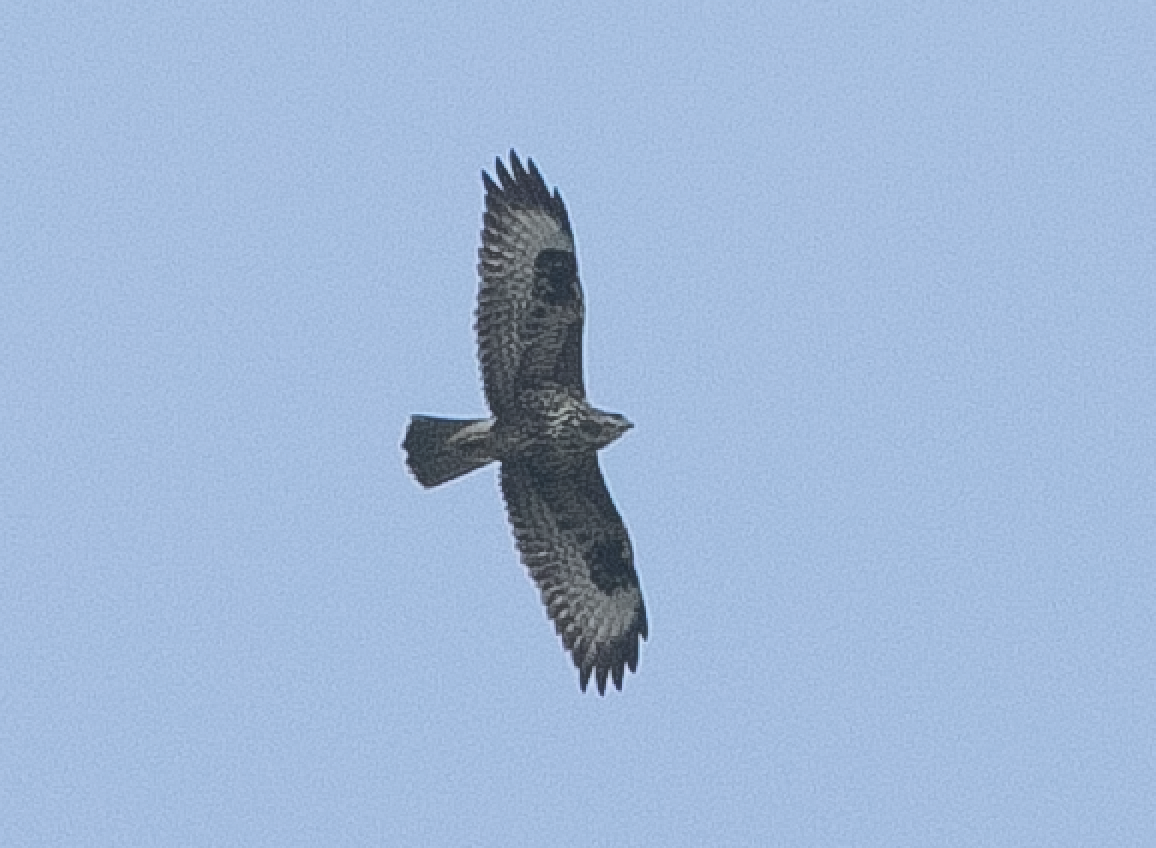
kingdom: Animalia
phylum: Chordata
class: Aves
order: Accipitriformes
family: Accipitridae
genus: Buteo
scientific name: Buteo buteo
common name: Common buzzard
